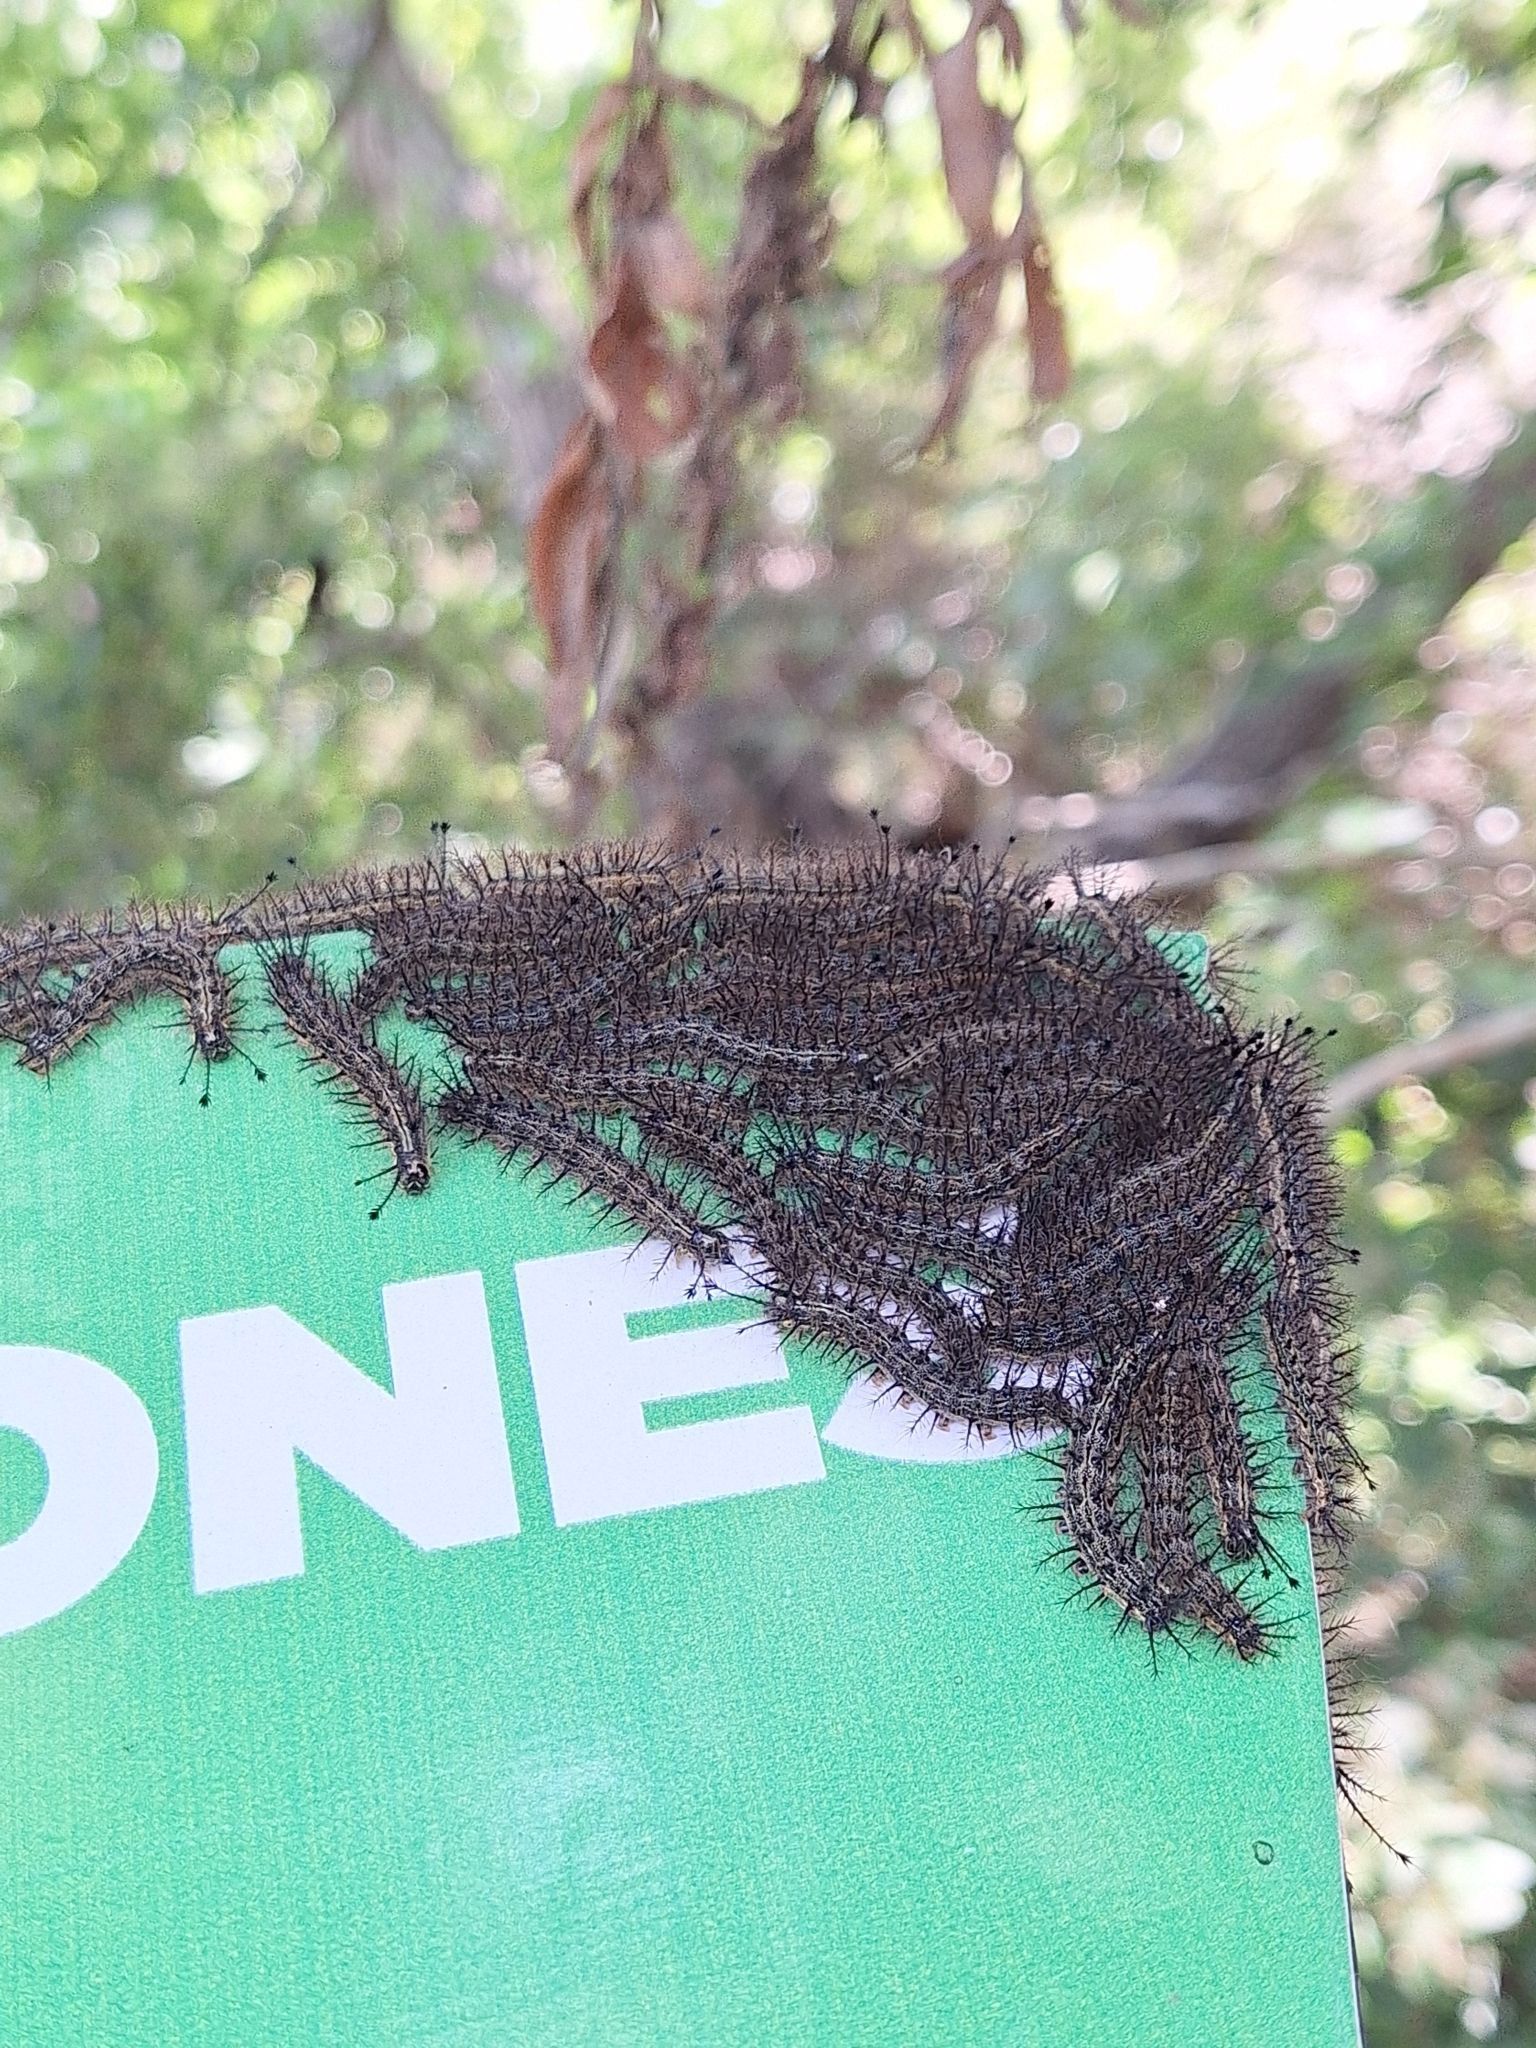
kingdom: Animalia
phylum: Arthropoda
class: Insecta
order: Lepidoptera
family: Saturniidae
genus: Hylesia
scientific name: Hylesia nigricans
